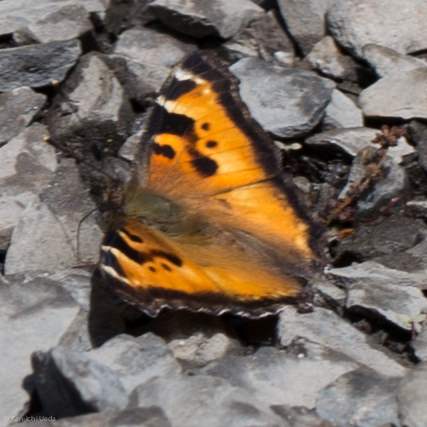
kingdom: Animalia
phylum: Arthropoda
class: Insecta
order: Lepidoptera
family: Nymphalidae
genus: Nymphalis
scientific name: Nymphalis californica
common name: California tortoiseshell
